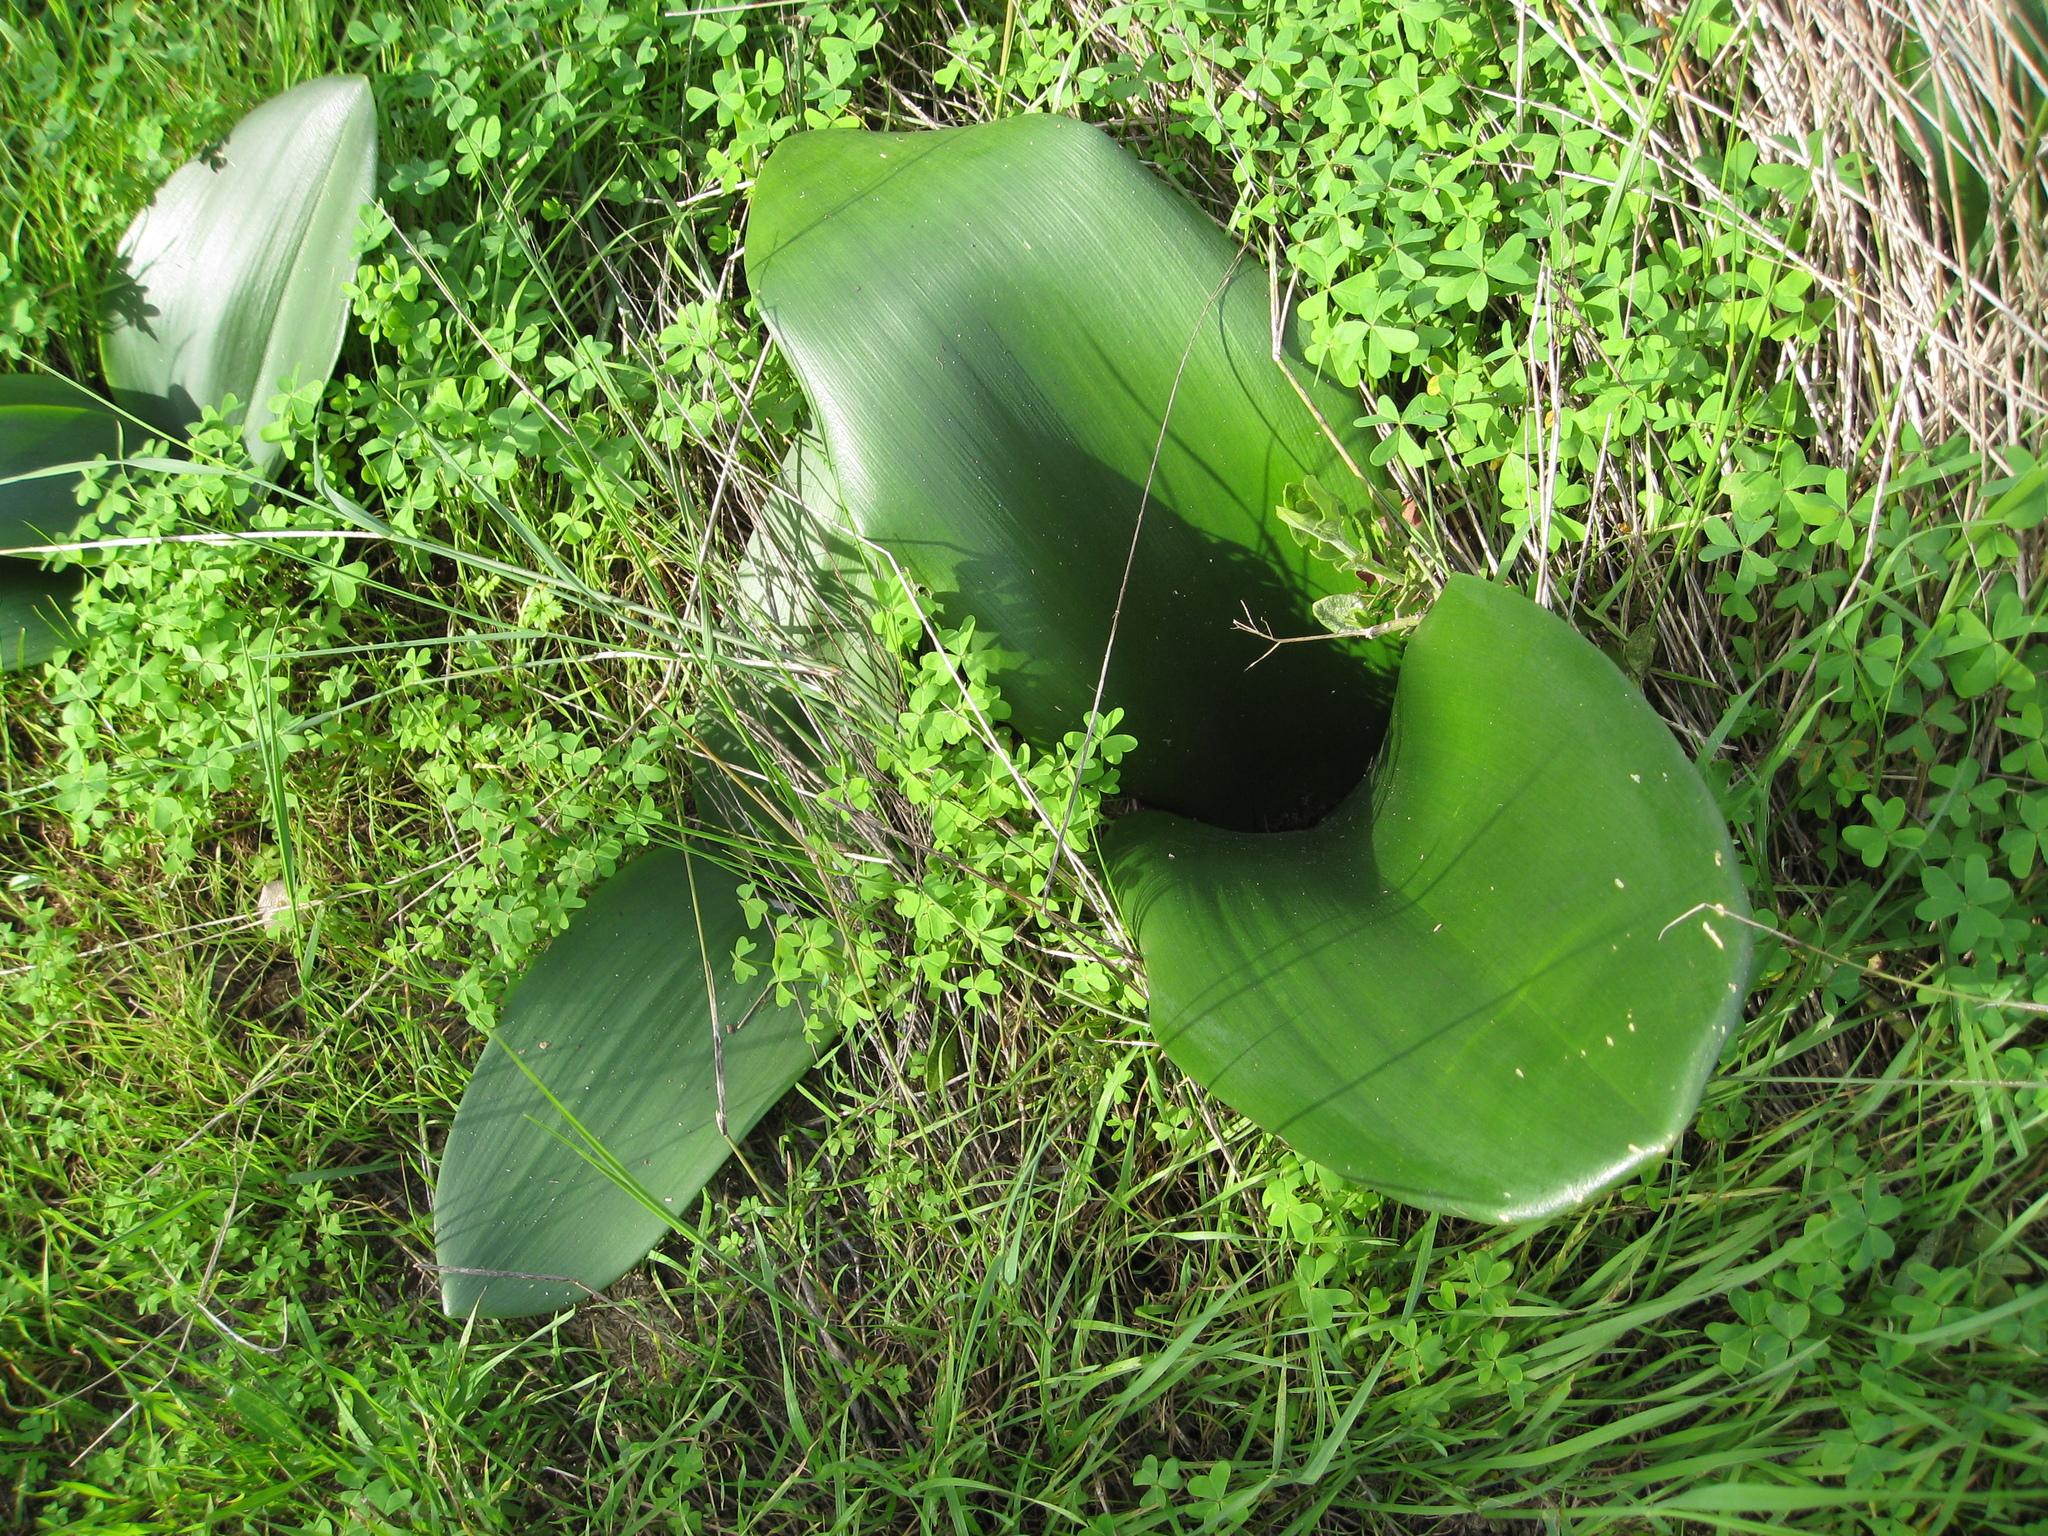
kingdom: Plantae
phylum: Tracheophyta
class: Liliopsida
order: Asparagales
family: Amaryllidaceae
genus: Haemanthus
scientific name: Haemanthus coccineus
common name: Cape-tulip
